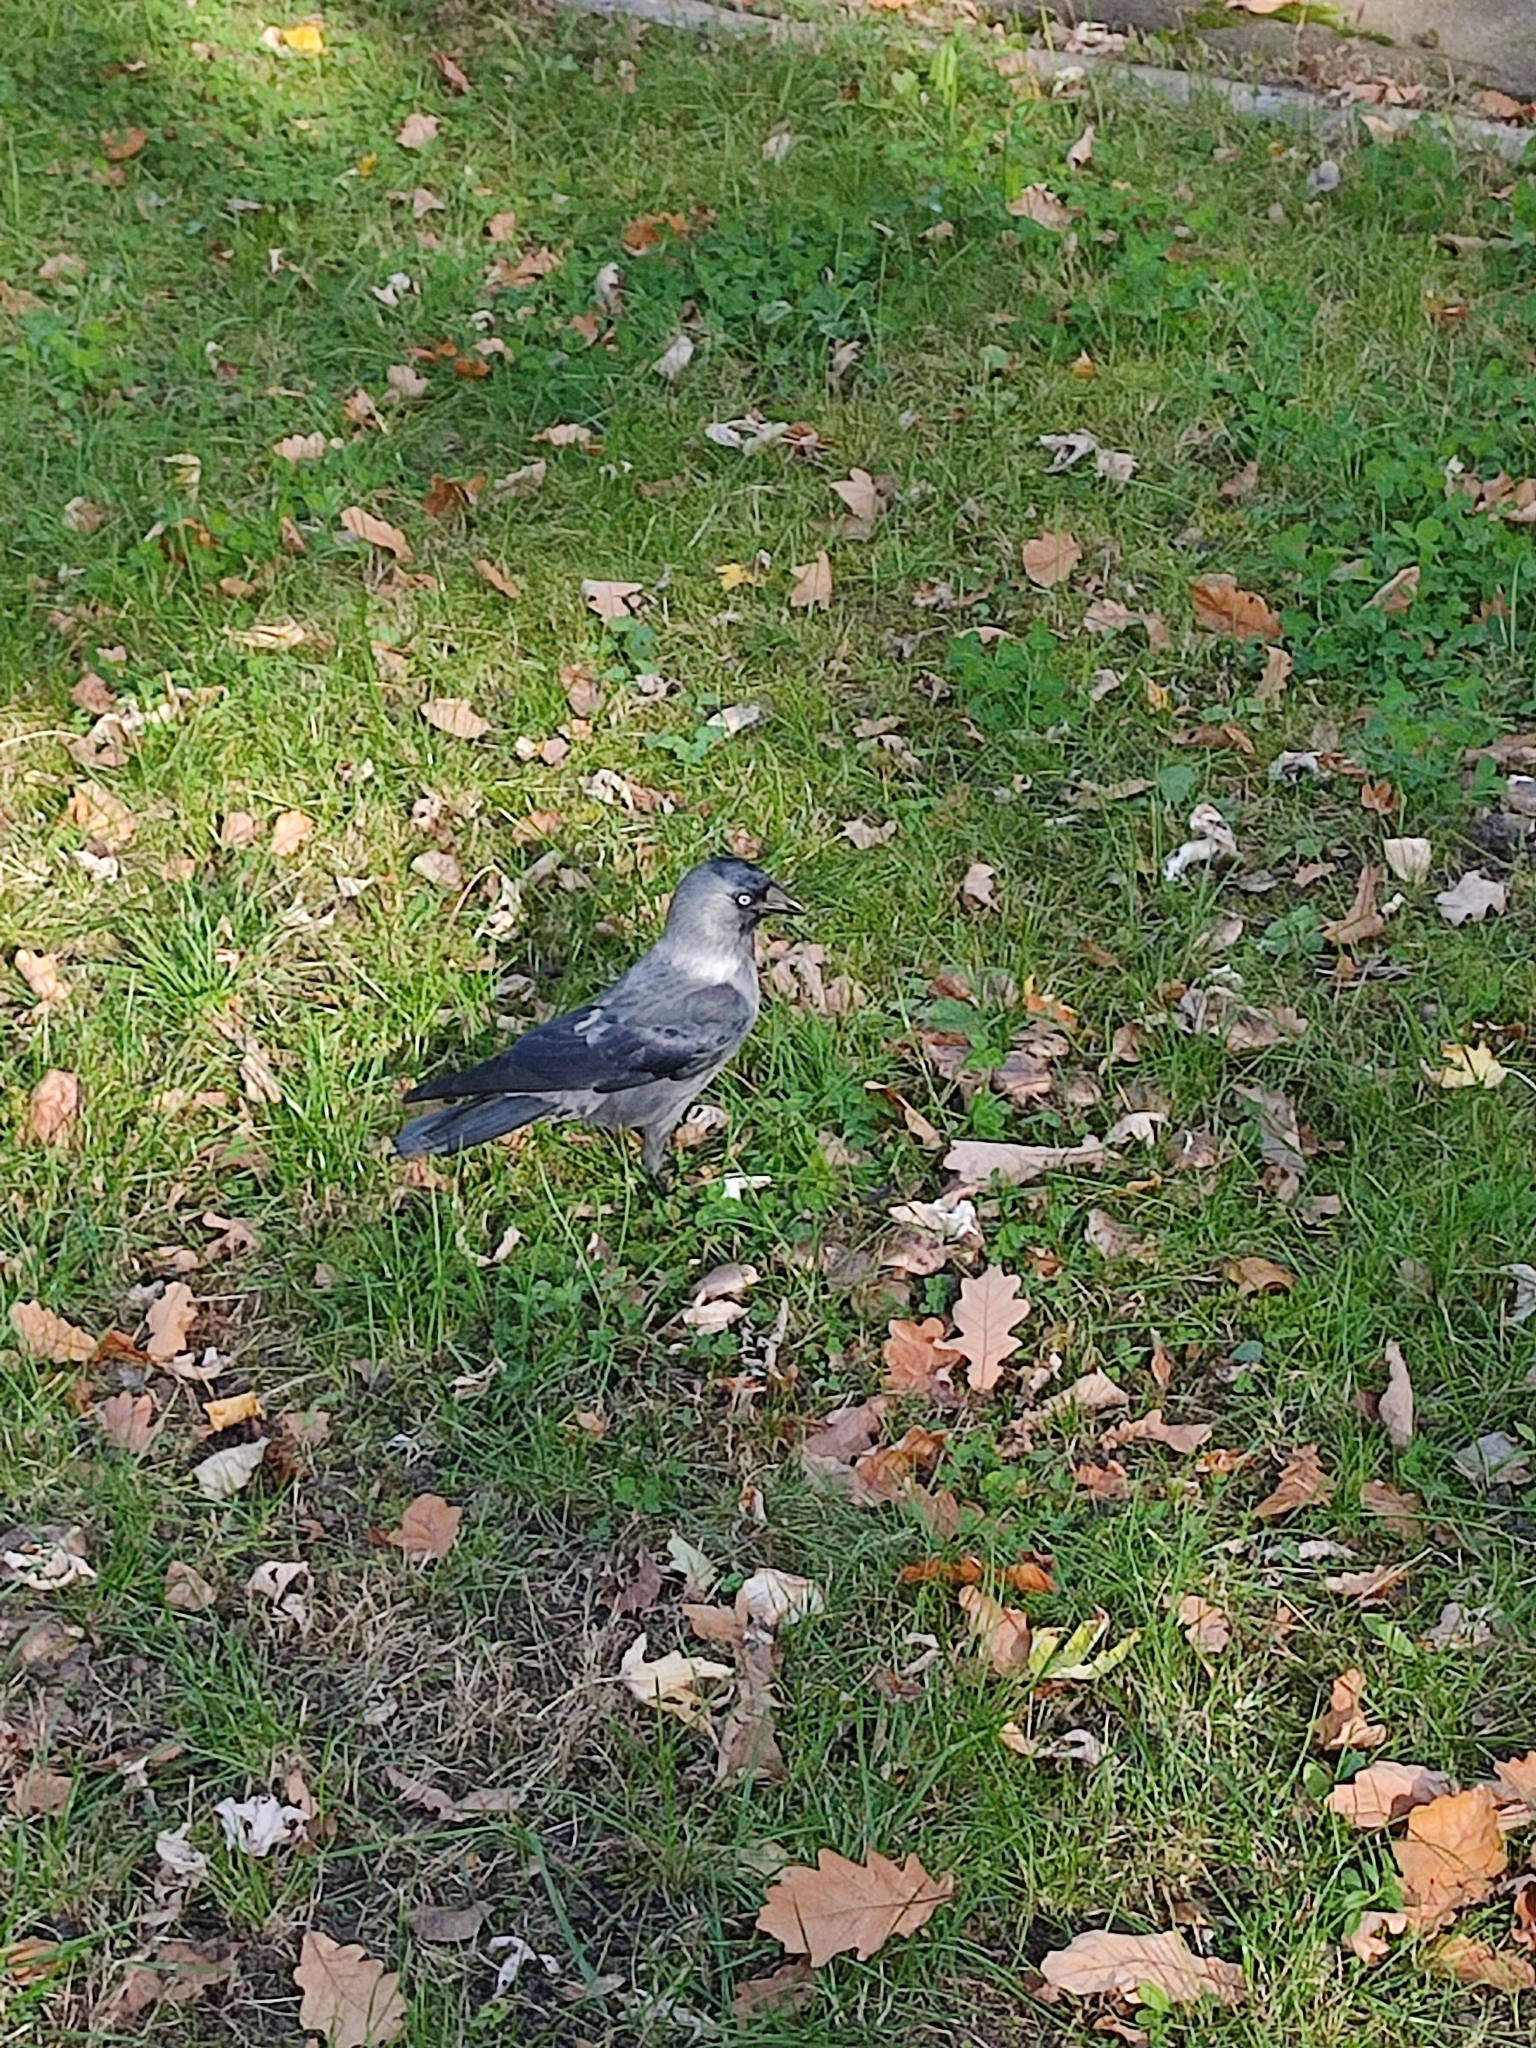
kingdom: Animalia
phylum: Chordata
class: Aves
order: Passeriformes
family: Corvidae
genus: Coloeus
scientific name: Coloeus monedula
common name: Western jackdaw
